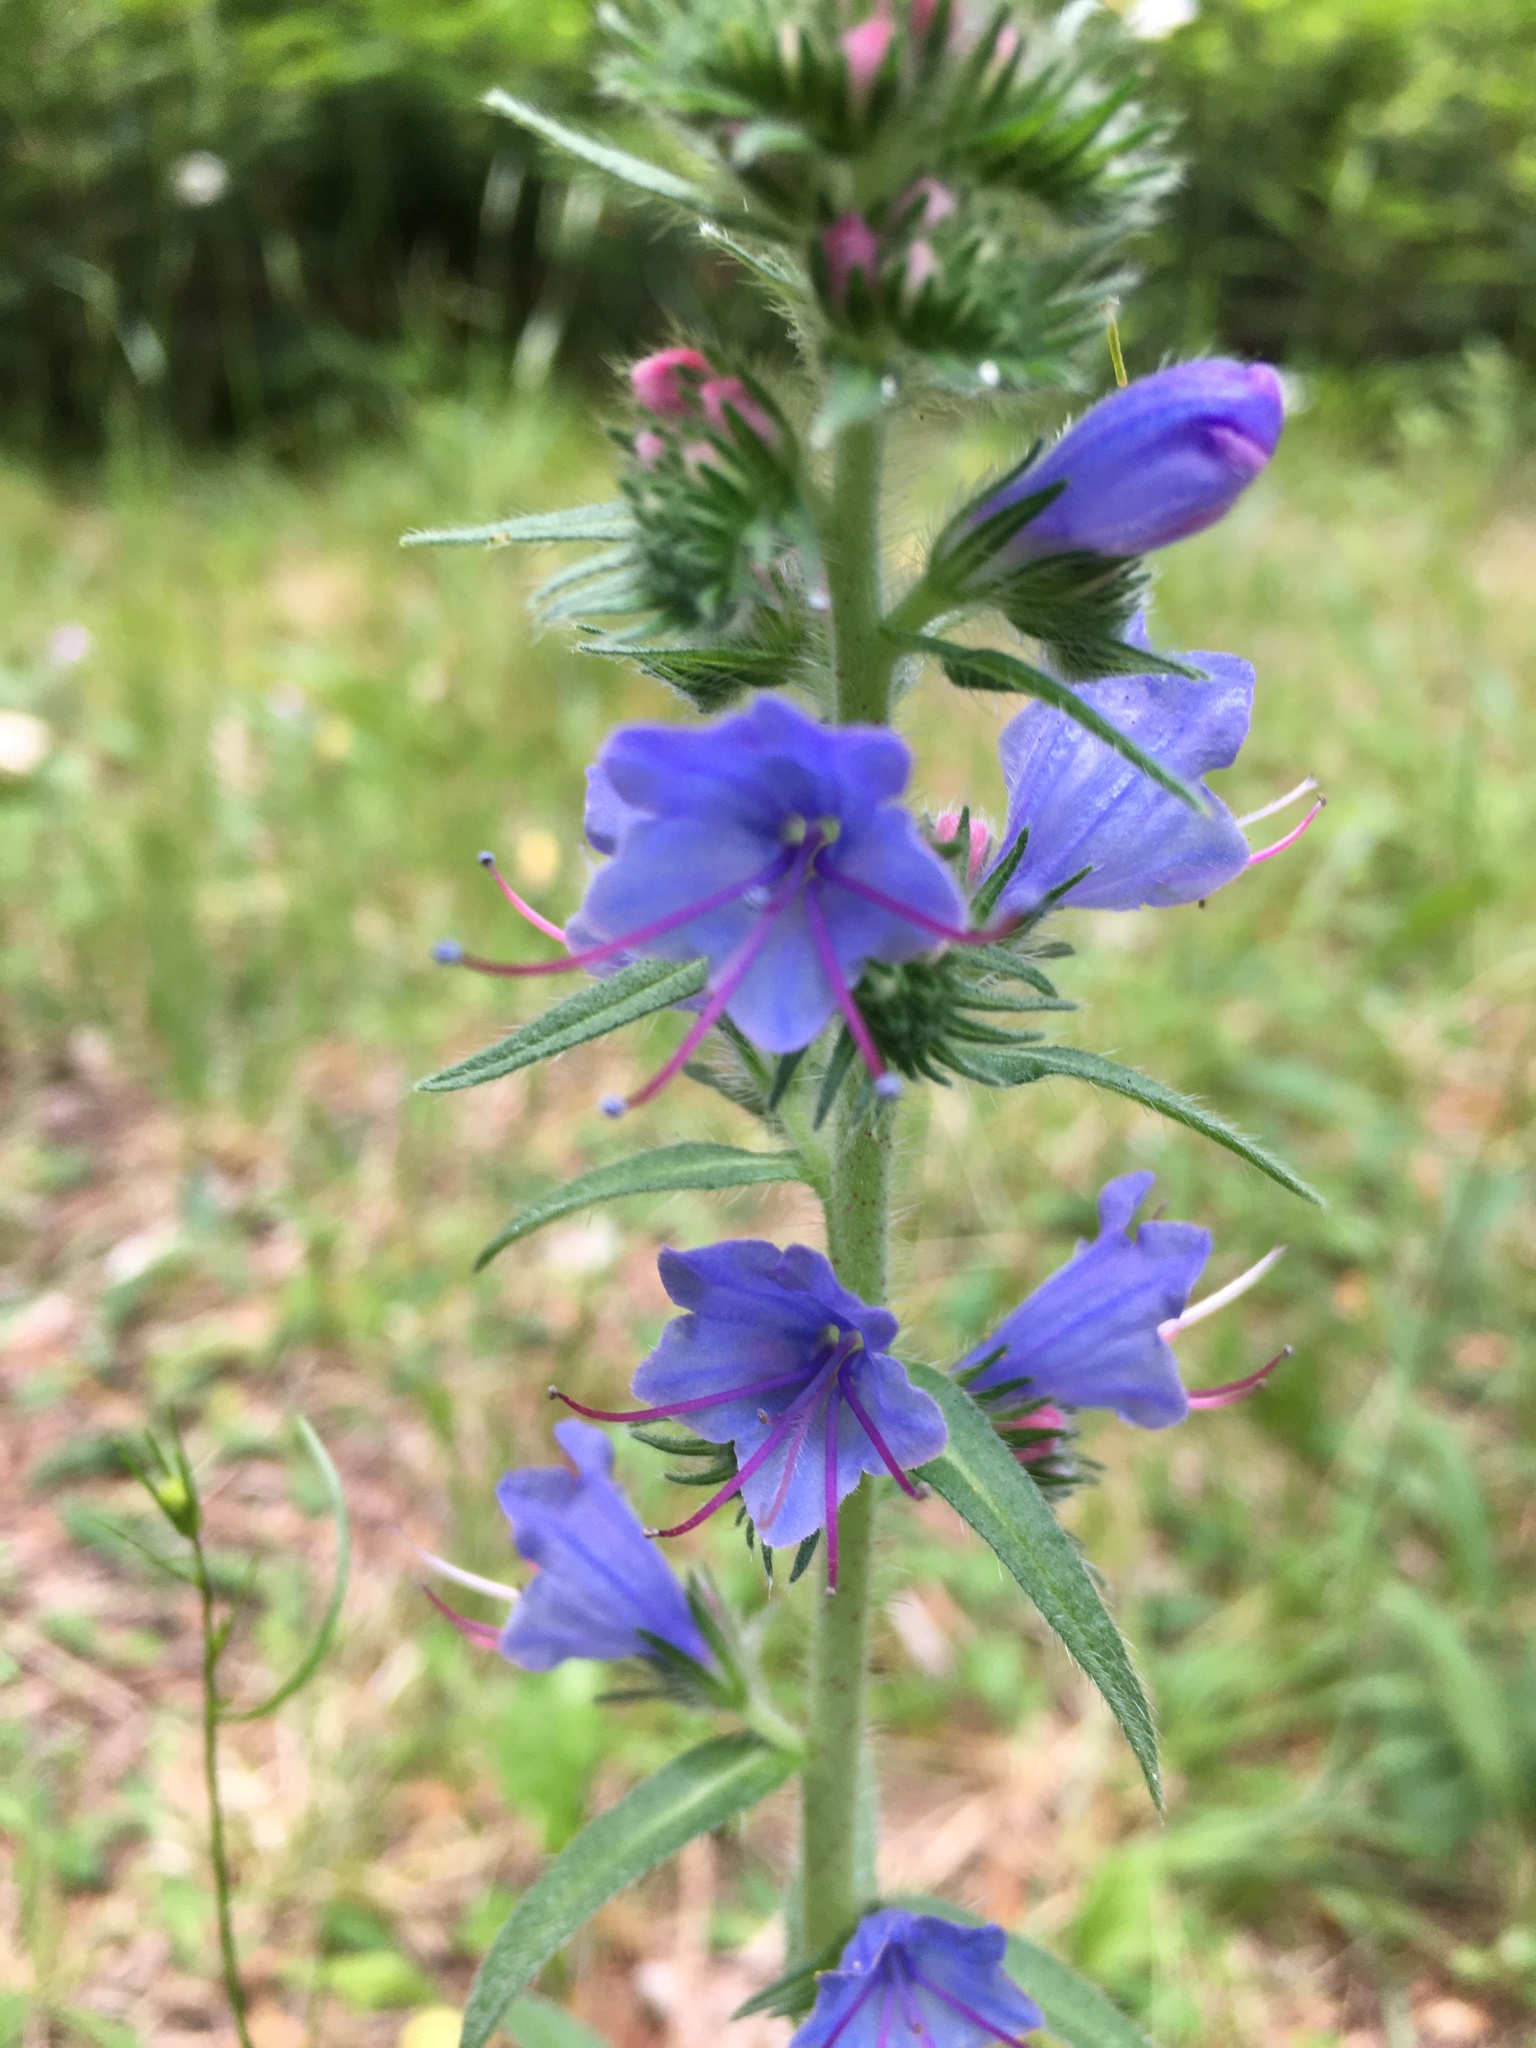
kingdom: Plantae
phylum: Tracheophyta
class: Magnoliopsida
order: Boraginales
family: Boraginaceae
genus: Echium
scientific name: Echium vulgare
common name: Common viper's bugloss
